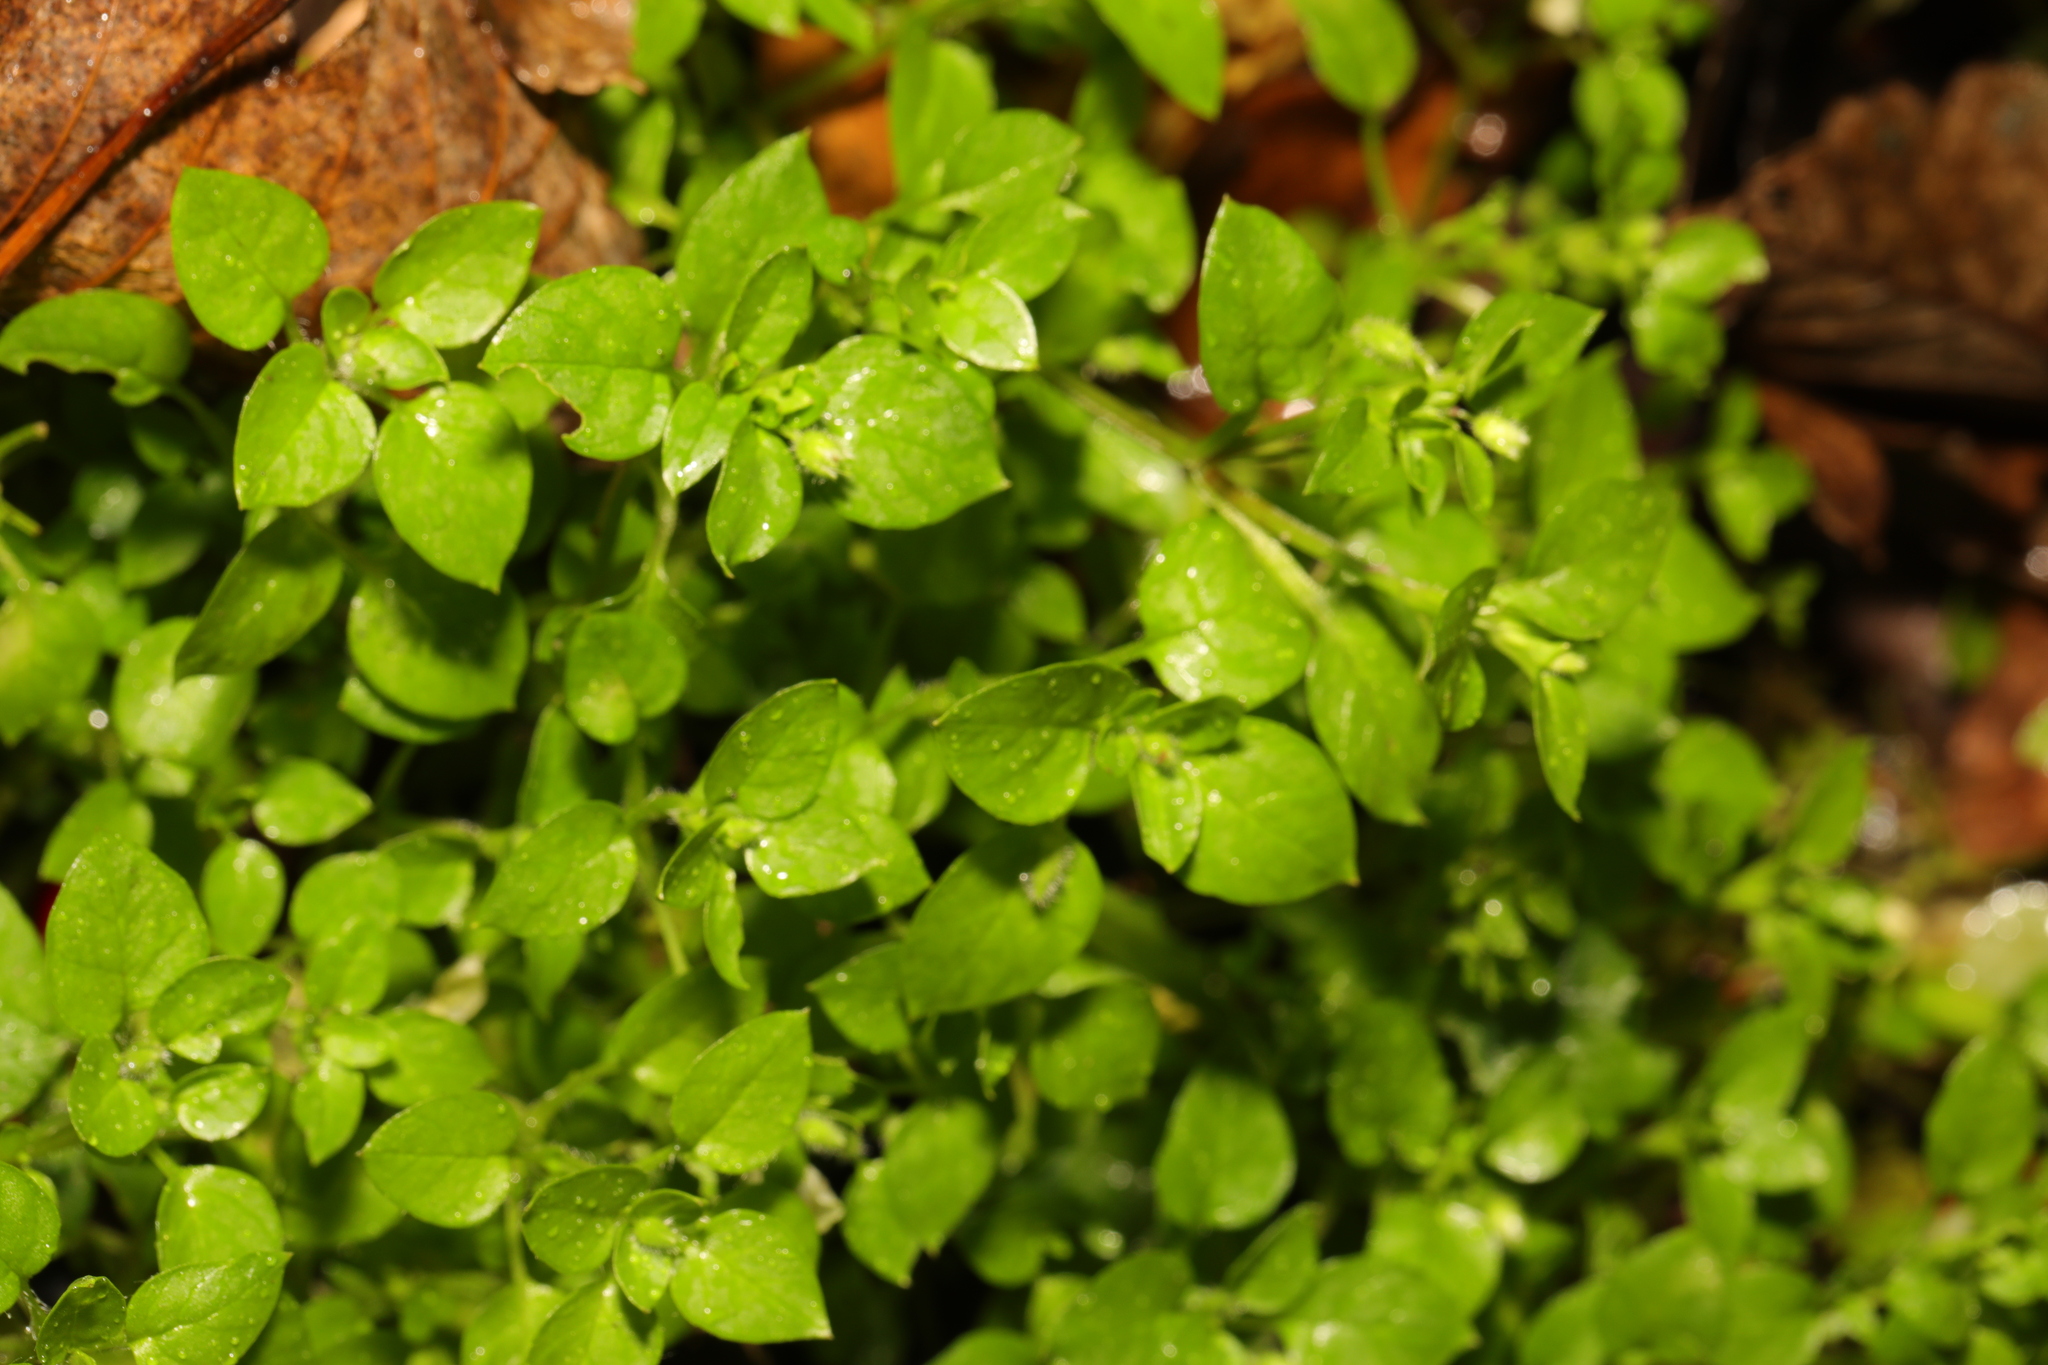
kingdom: Plantae
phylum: Tracheophyta
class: Magnoliopsida
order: Caryophyllales
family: Caryophyllaceae
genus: Stellaria
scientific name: Stellaria media
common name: Common chickweed
